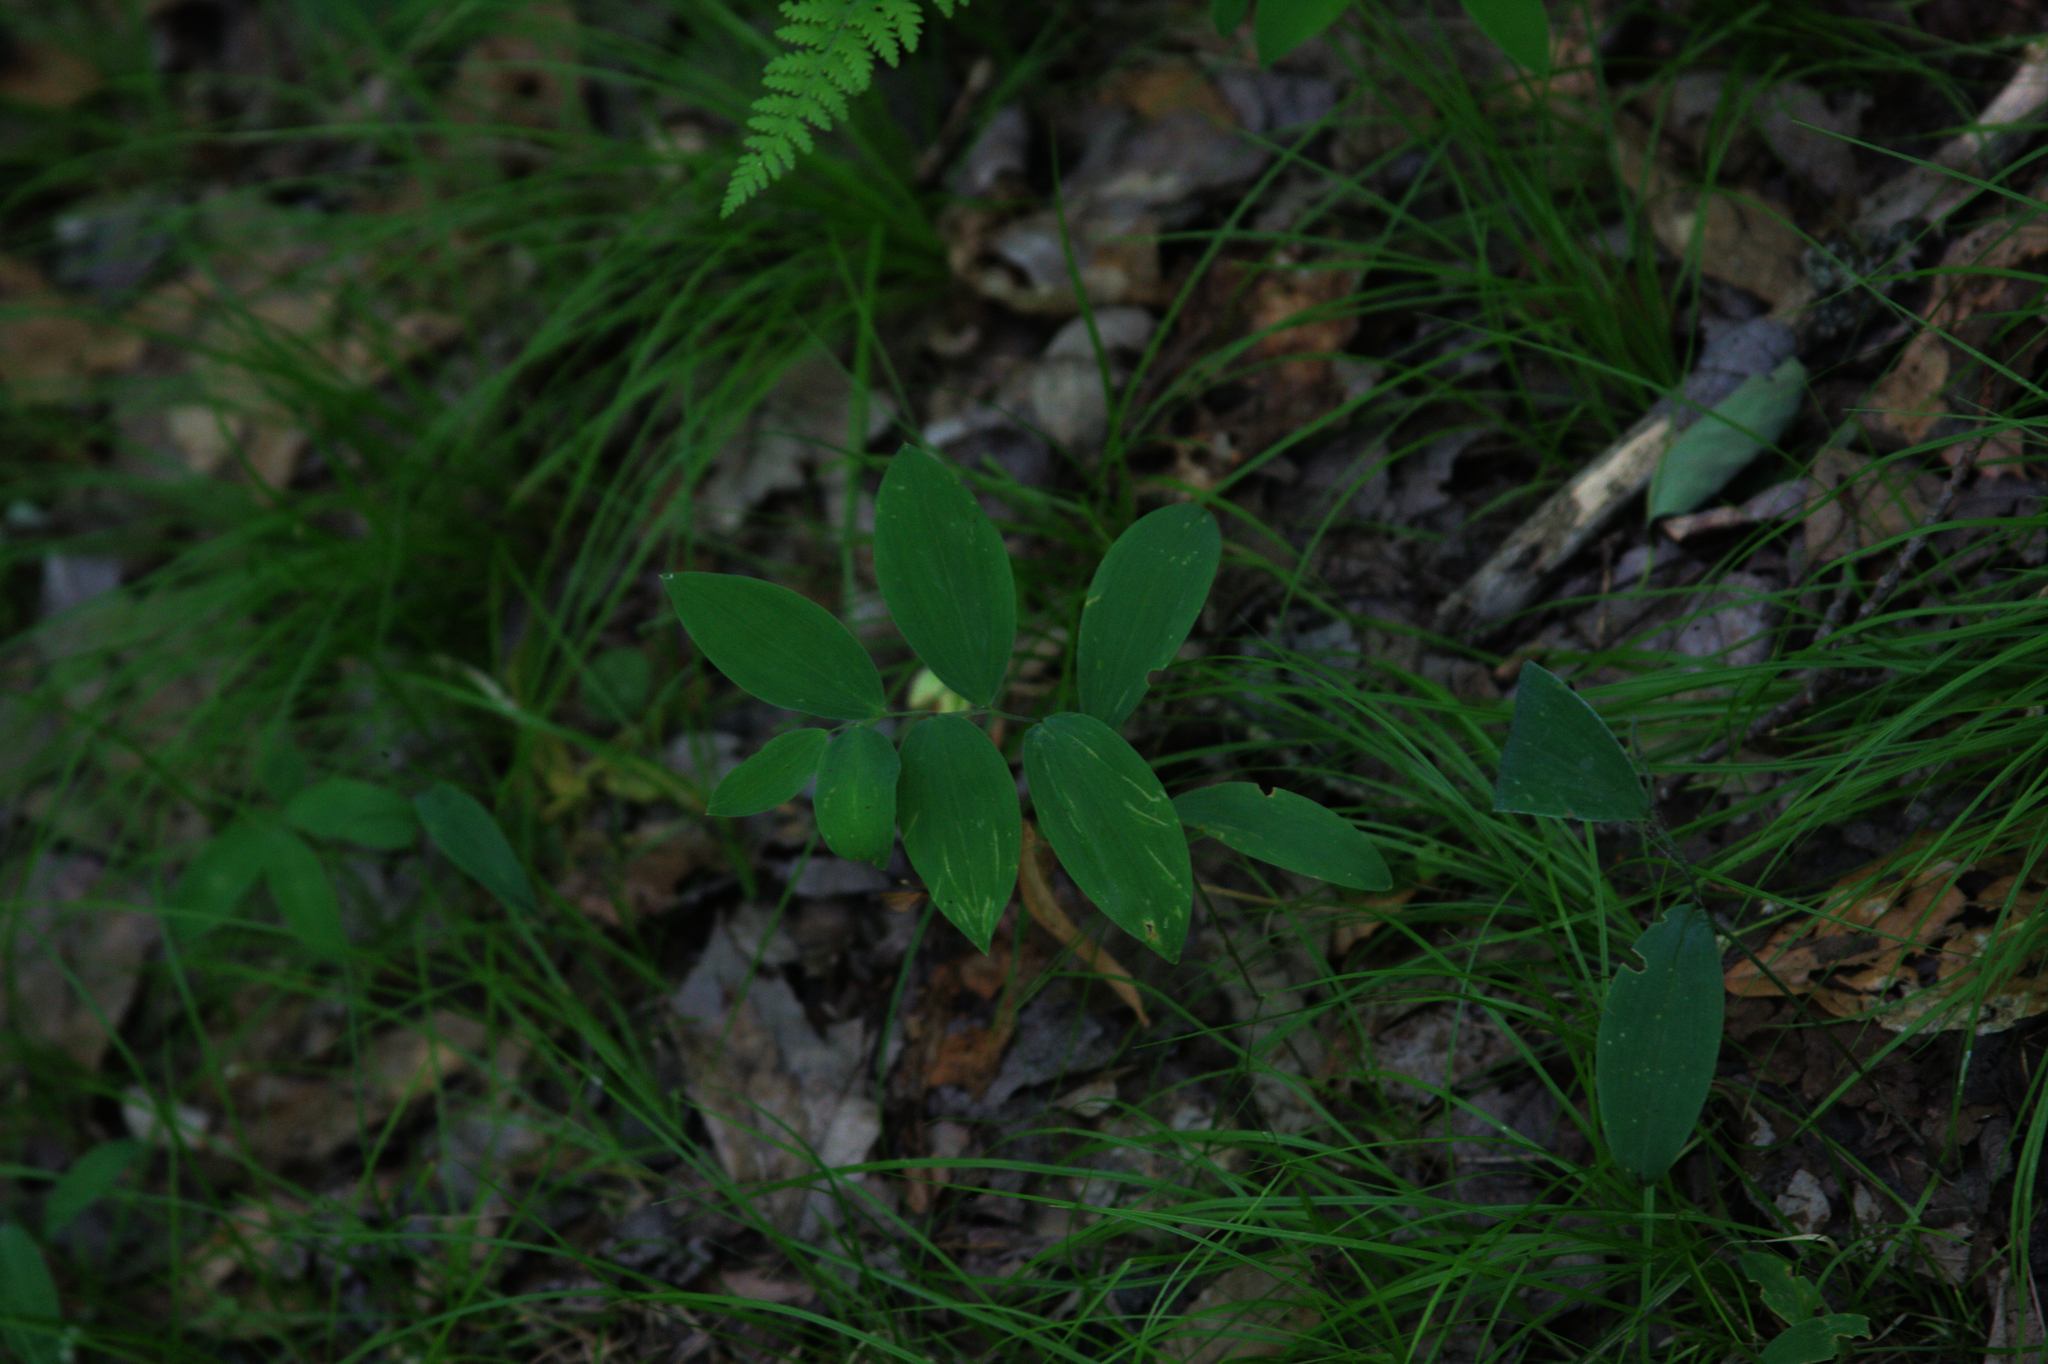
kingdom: Plantae
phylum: Tracheophyta
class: Liliopsida
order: Liliales
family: Colchicaceae
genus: Uvularia
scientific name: Uvularia sessilifolia
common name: Straw-lily
